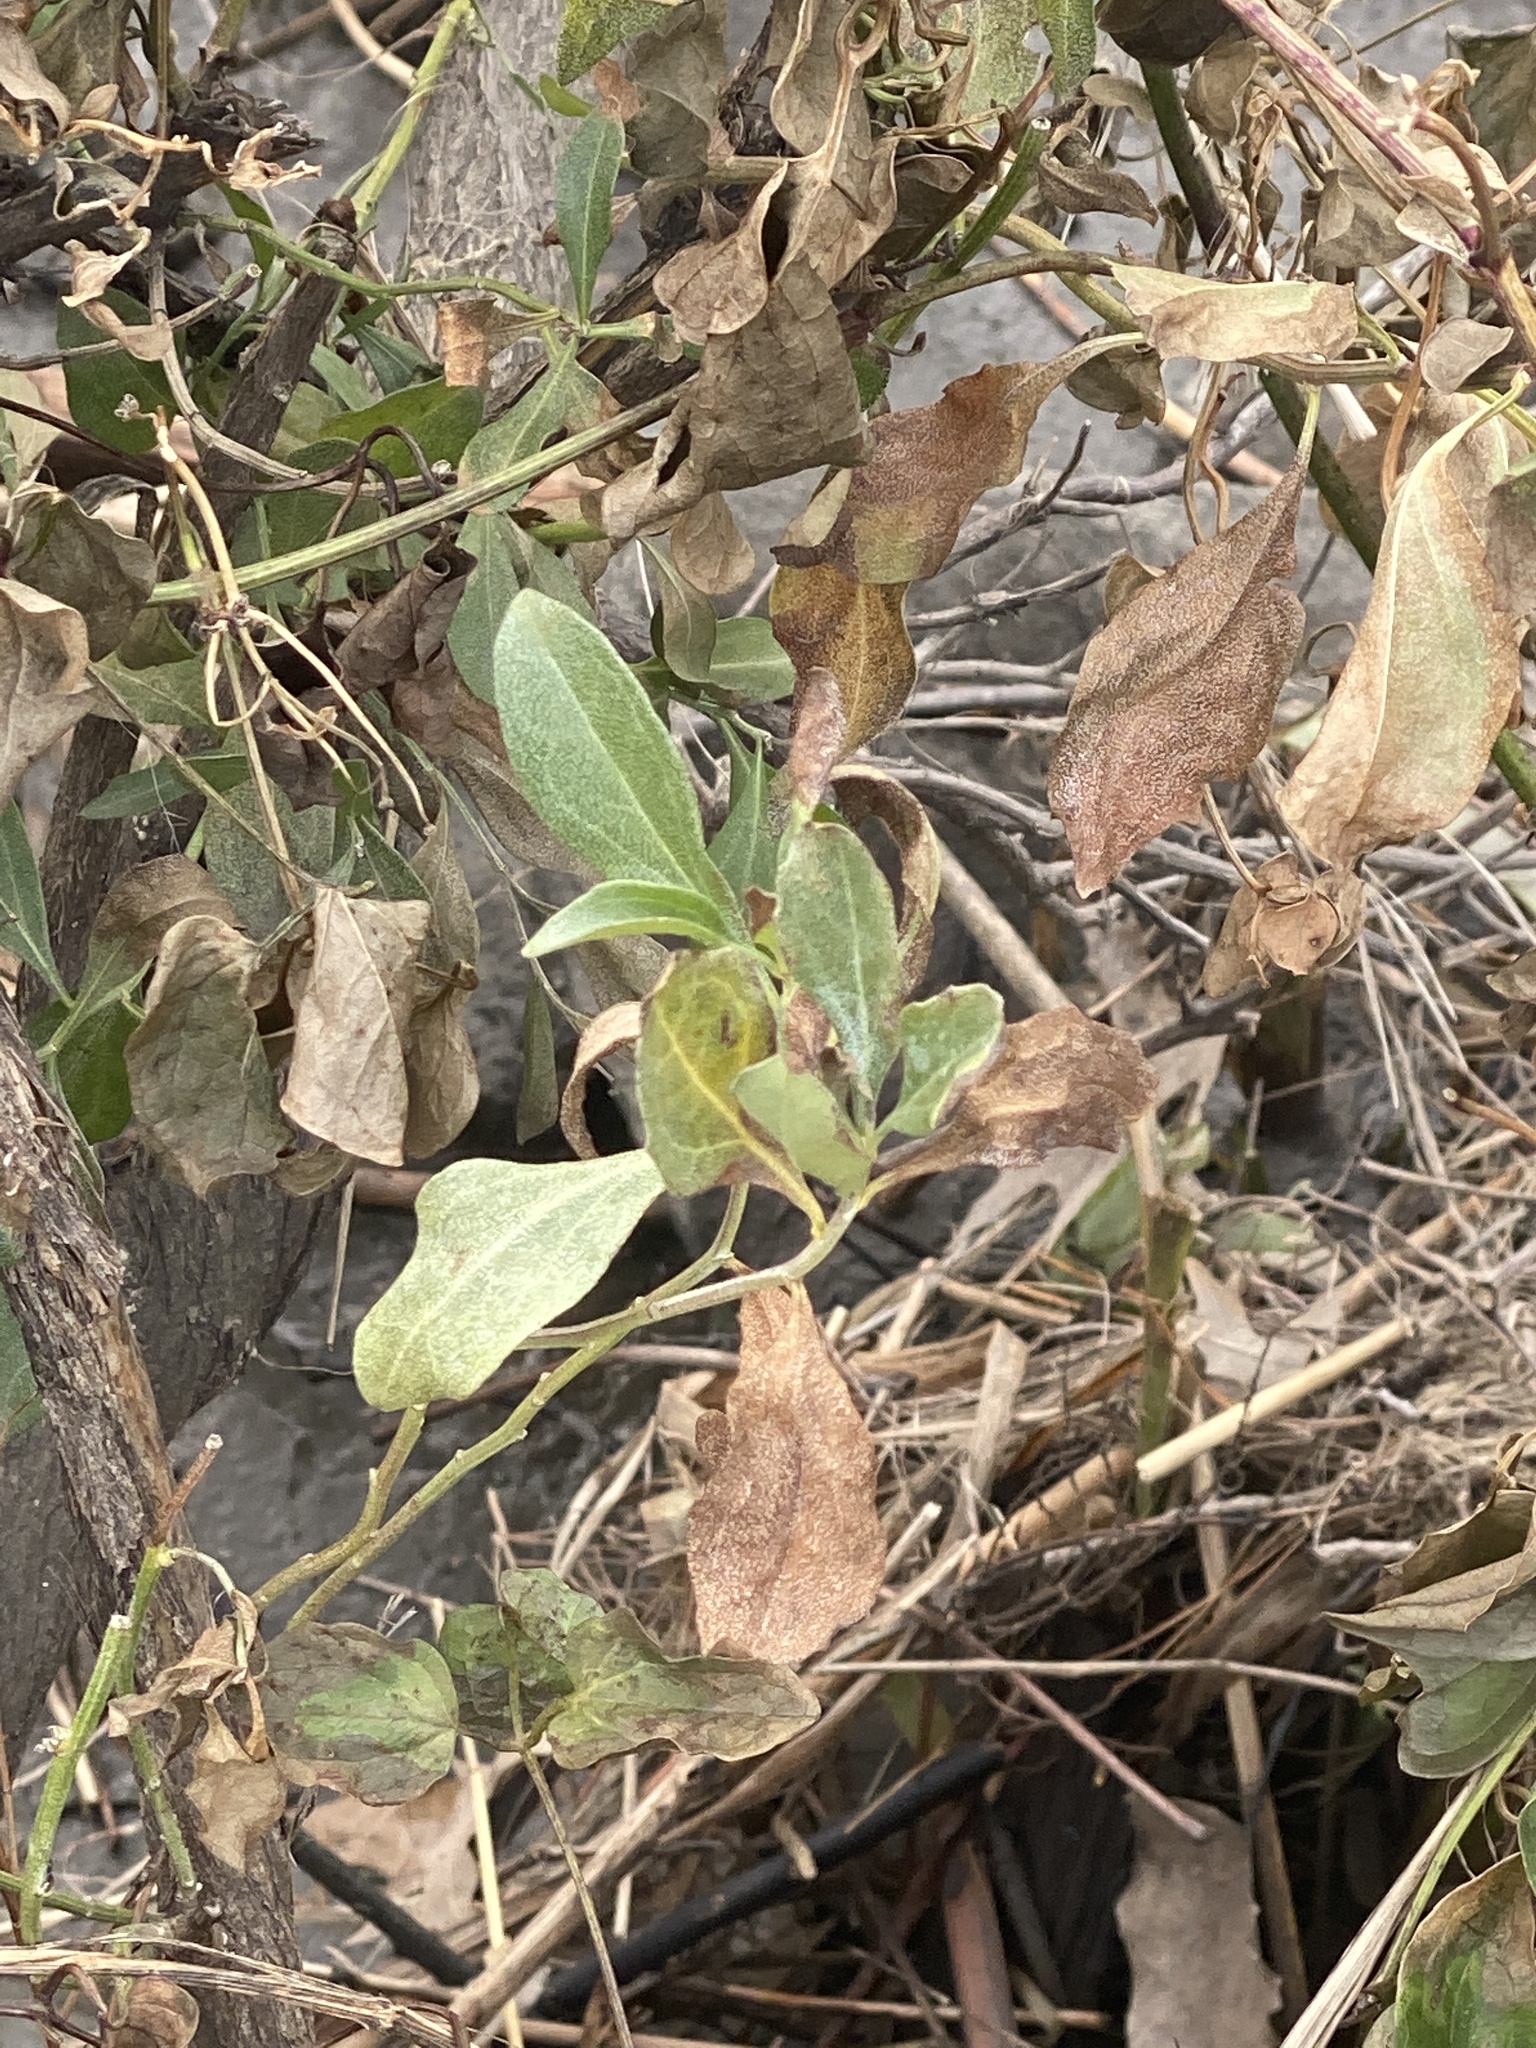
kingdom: Plantae
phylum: Tracheophyta
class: Magnoliopsida
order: Asterales
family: Asteraceae
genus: Baccharis
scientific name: Baccharis halimifolia
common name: Eastern baccharis
